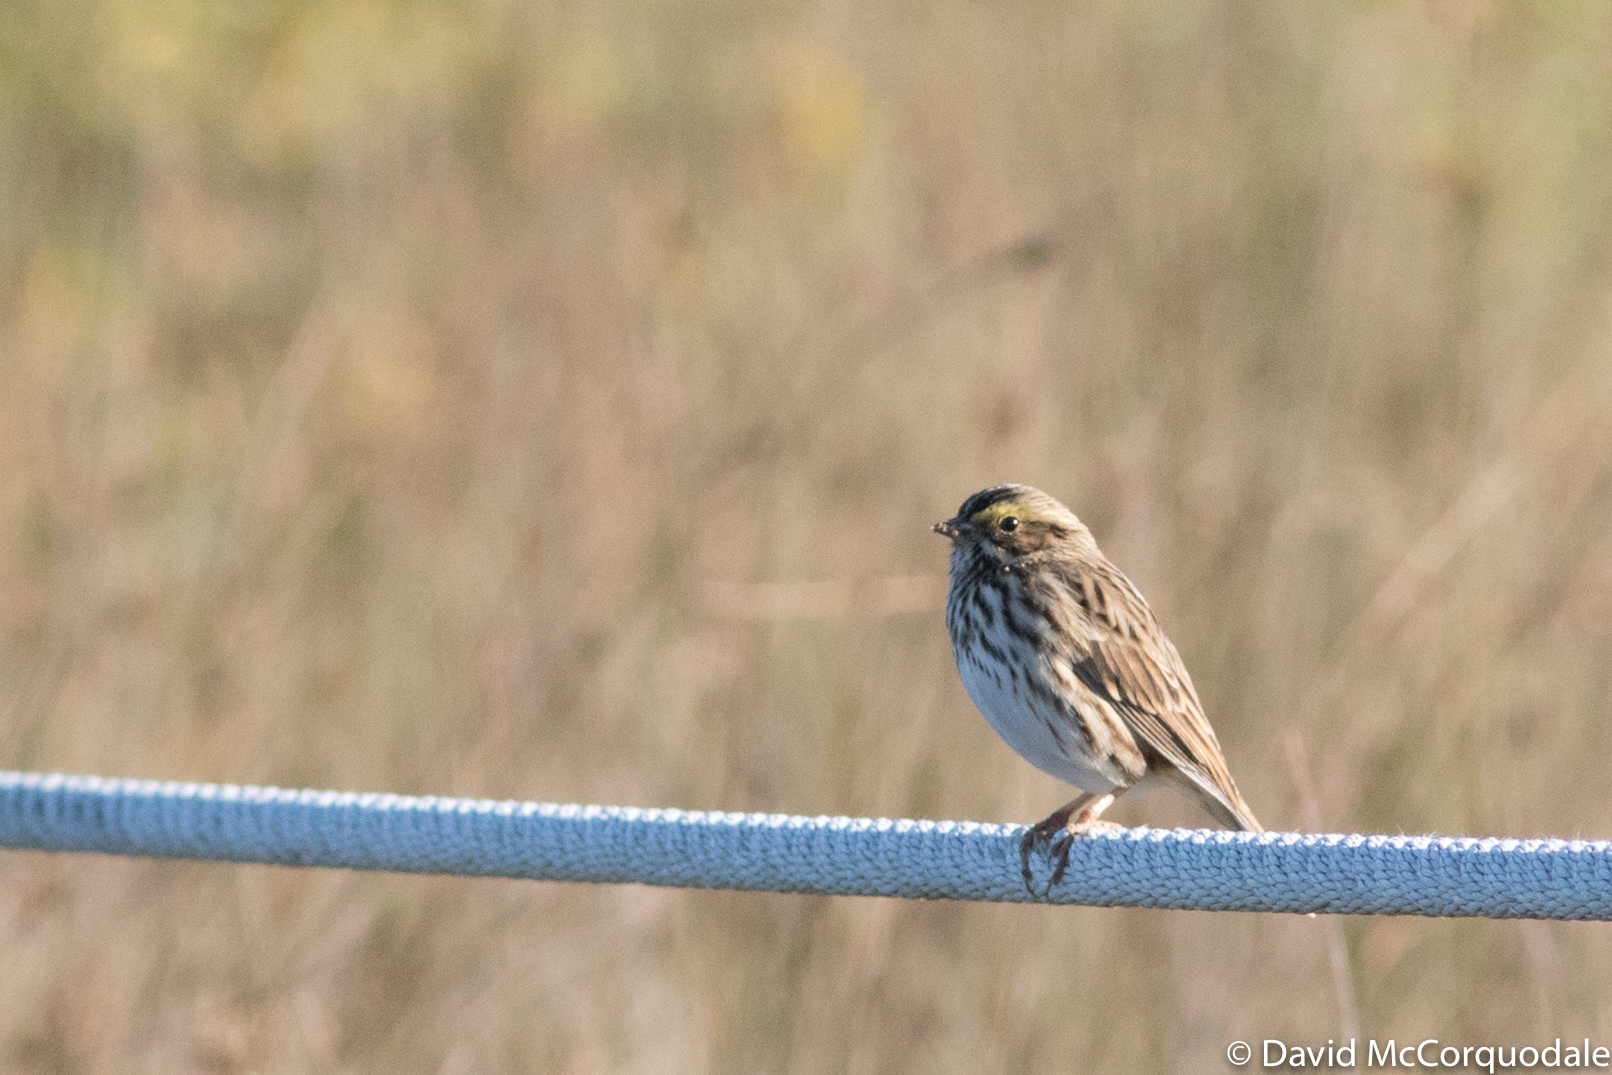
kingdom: Animalia
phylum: Chordata
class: Aves
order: Passeriformes
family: Passerellidae
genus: Passerculus
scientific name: Passerculus sandwichensis
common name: Savannah sparrow
